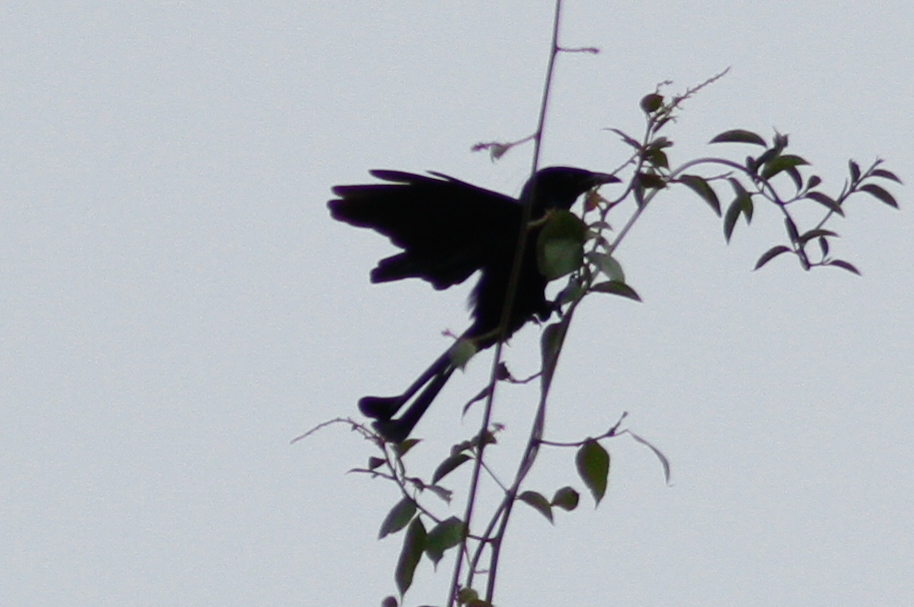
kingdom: Animalia
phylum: Chordata
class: Aves
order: Passeriformes
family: Dicruridae
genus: Dicrurus
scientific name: Dicrurus hottentottus
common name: Hair-crested drongo
